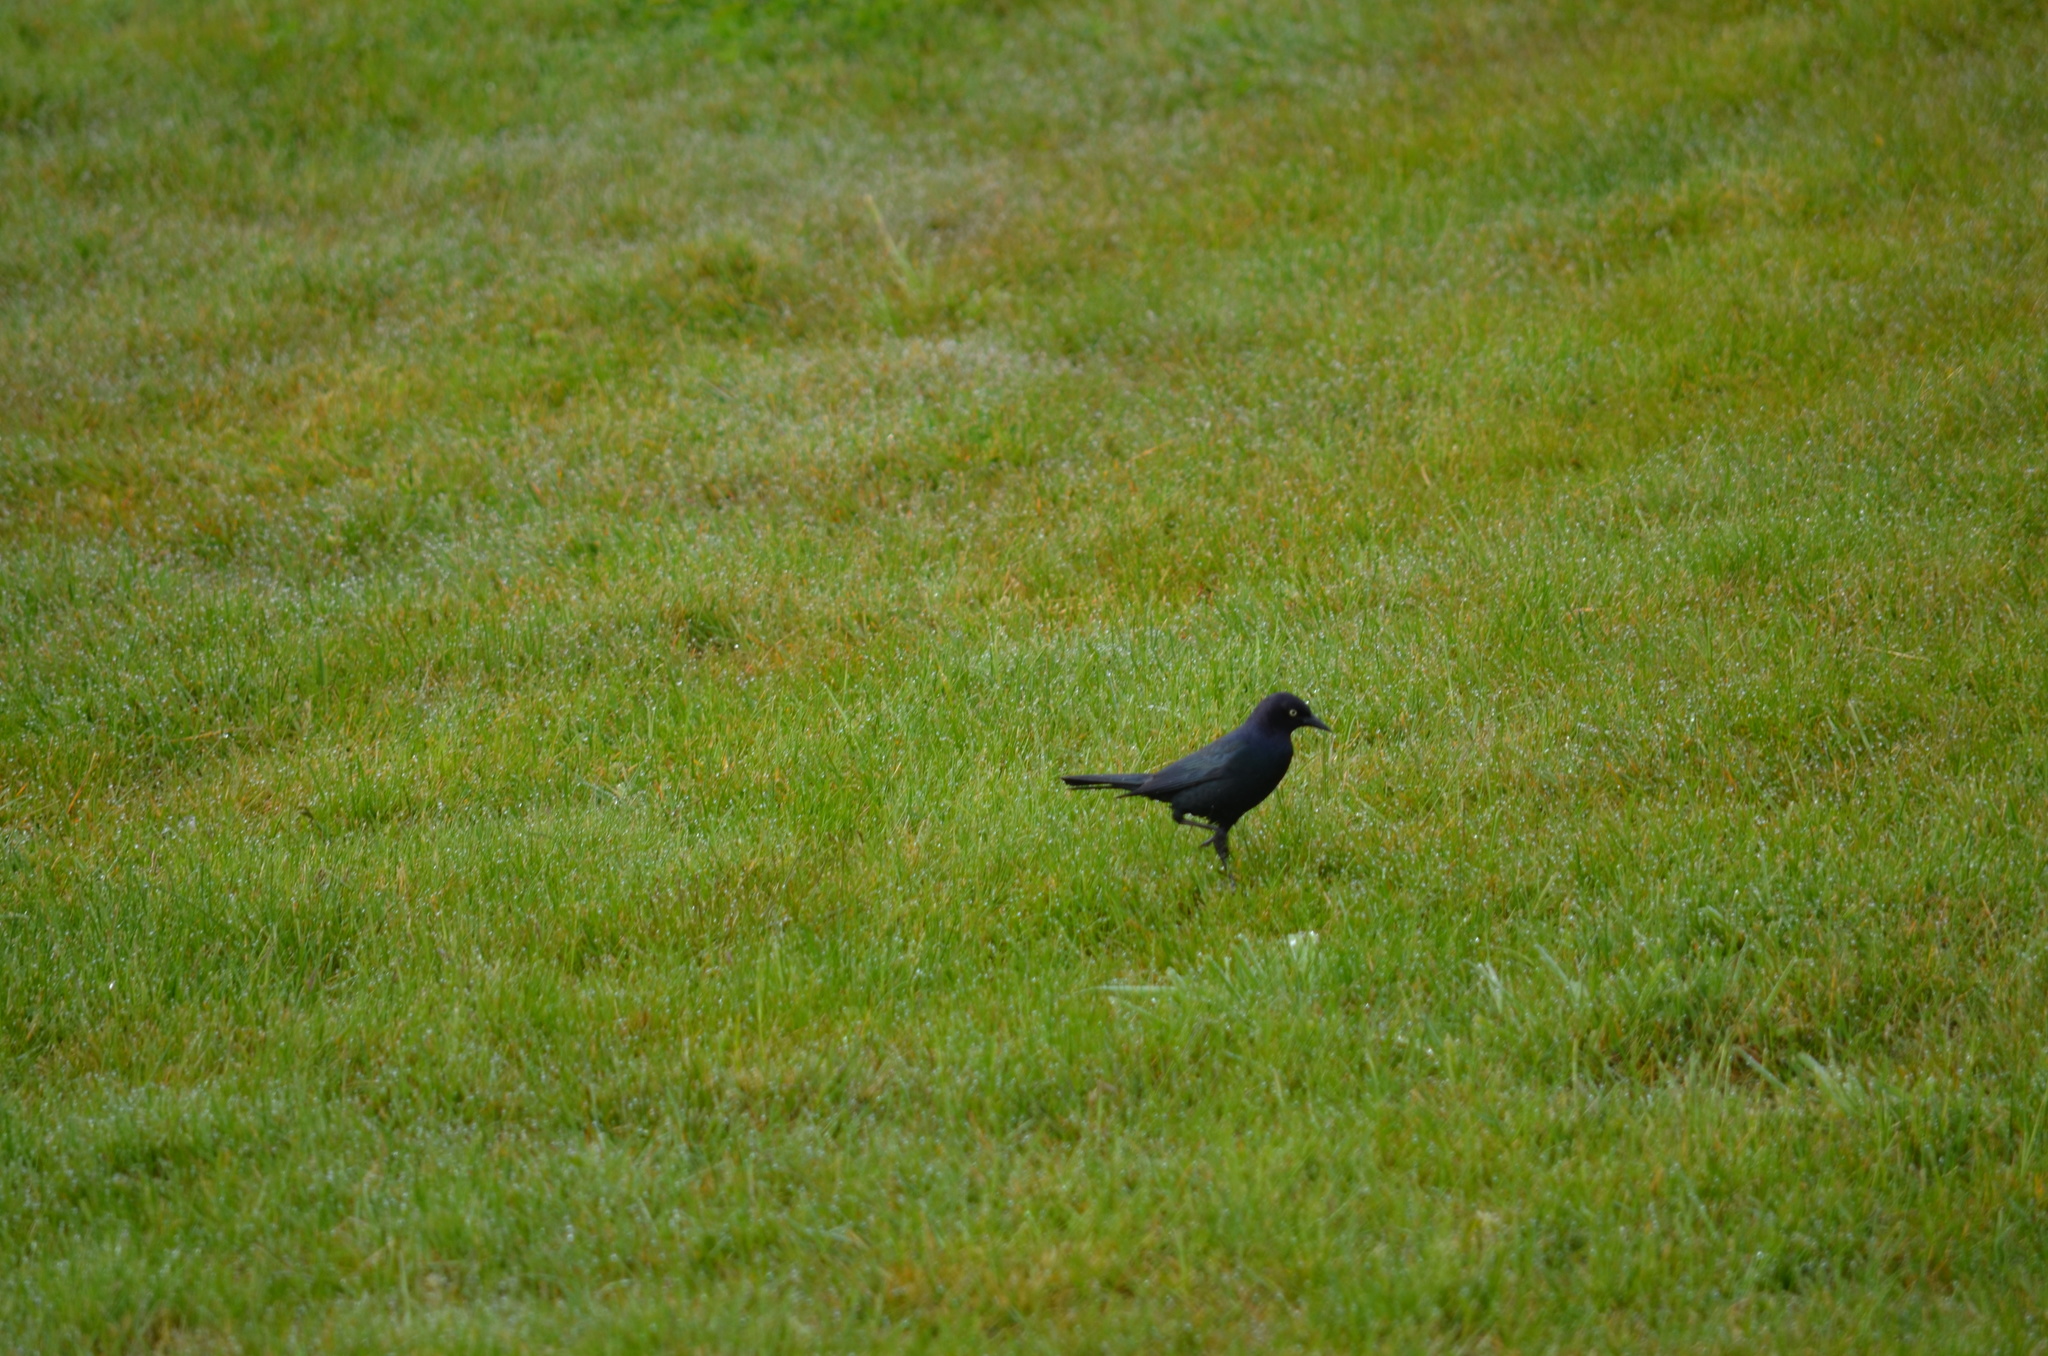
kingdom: Animalia
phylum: Chordata
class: Aves
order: Passeriformes
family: Icteridae
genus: Euphagus
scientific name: Euphagus cyanocephalus
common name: Brewer's blackbird
